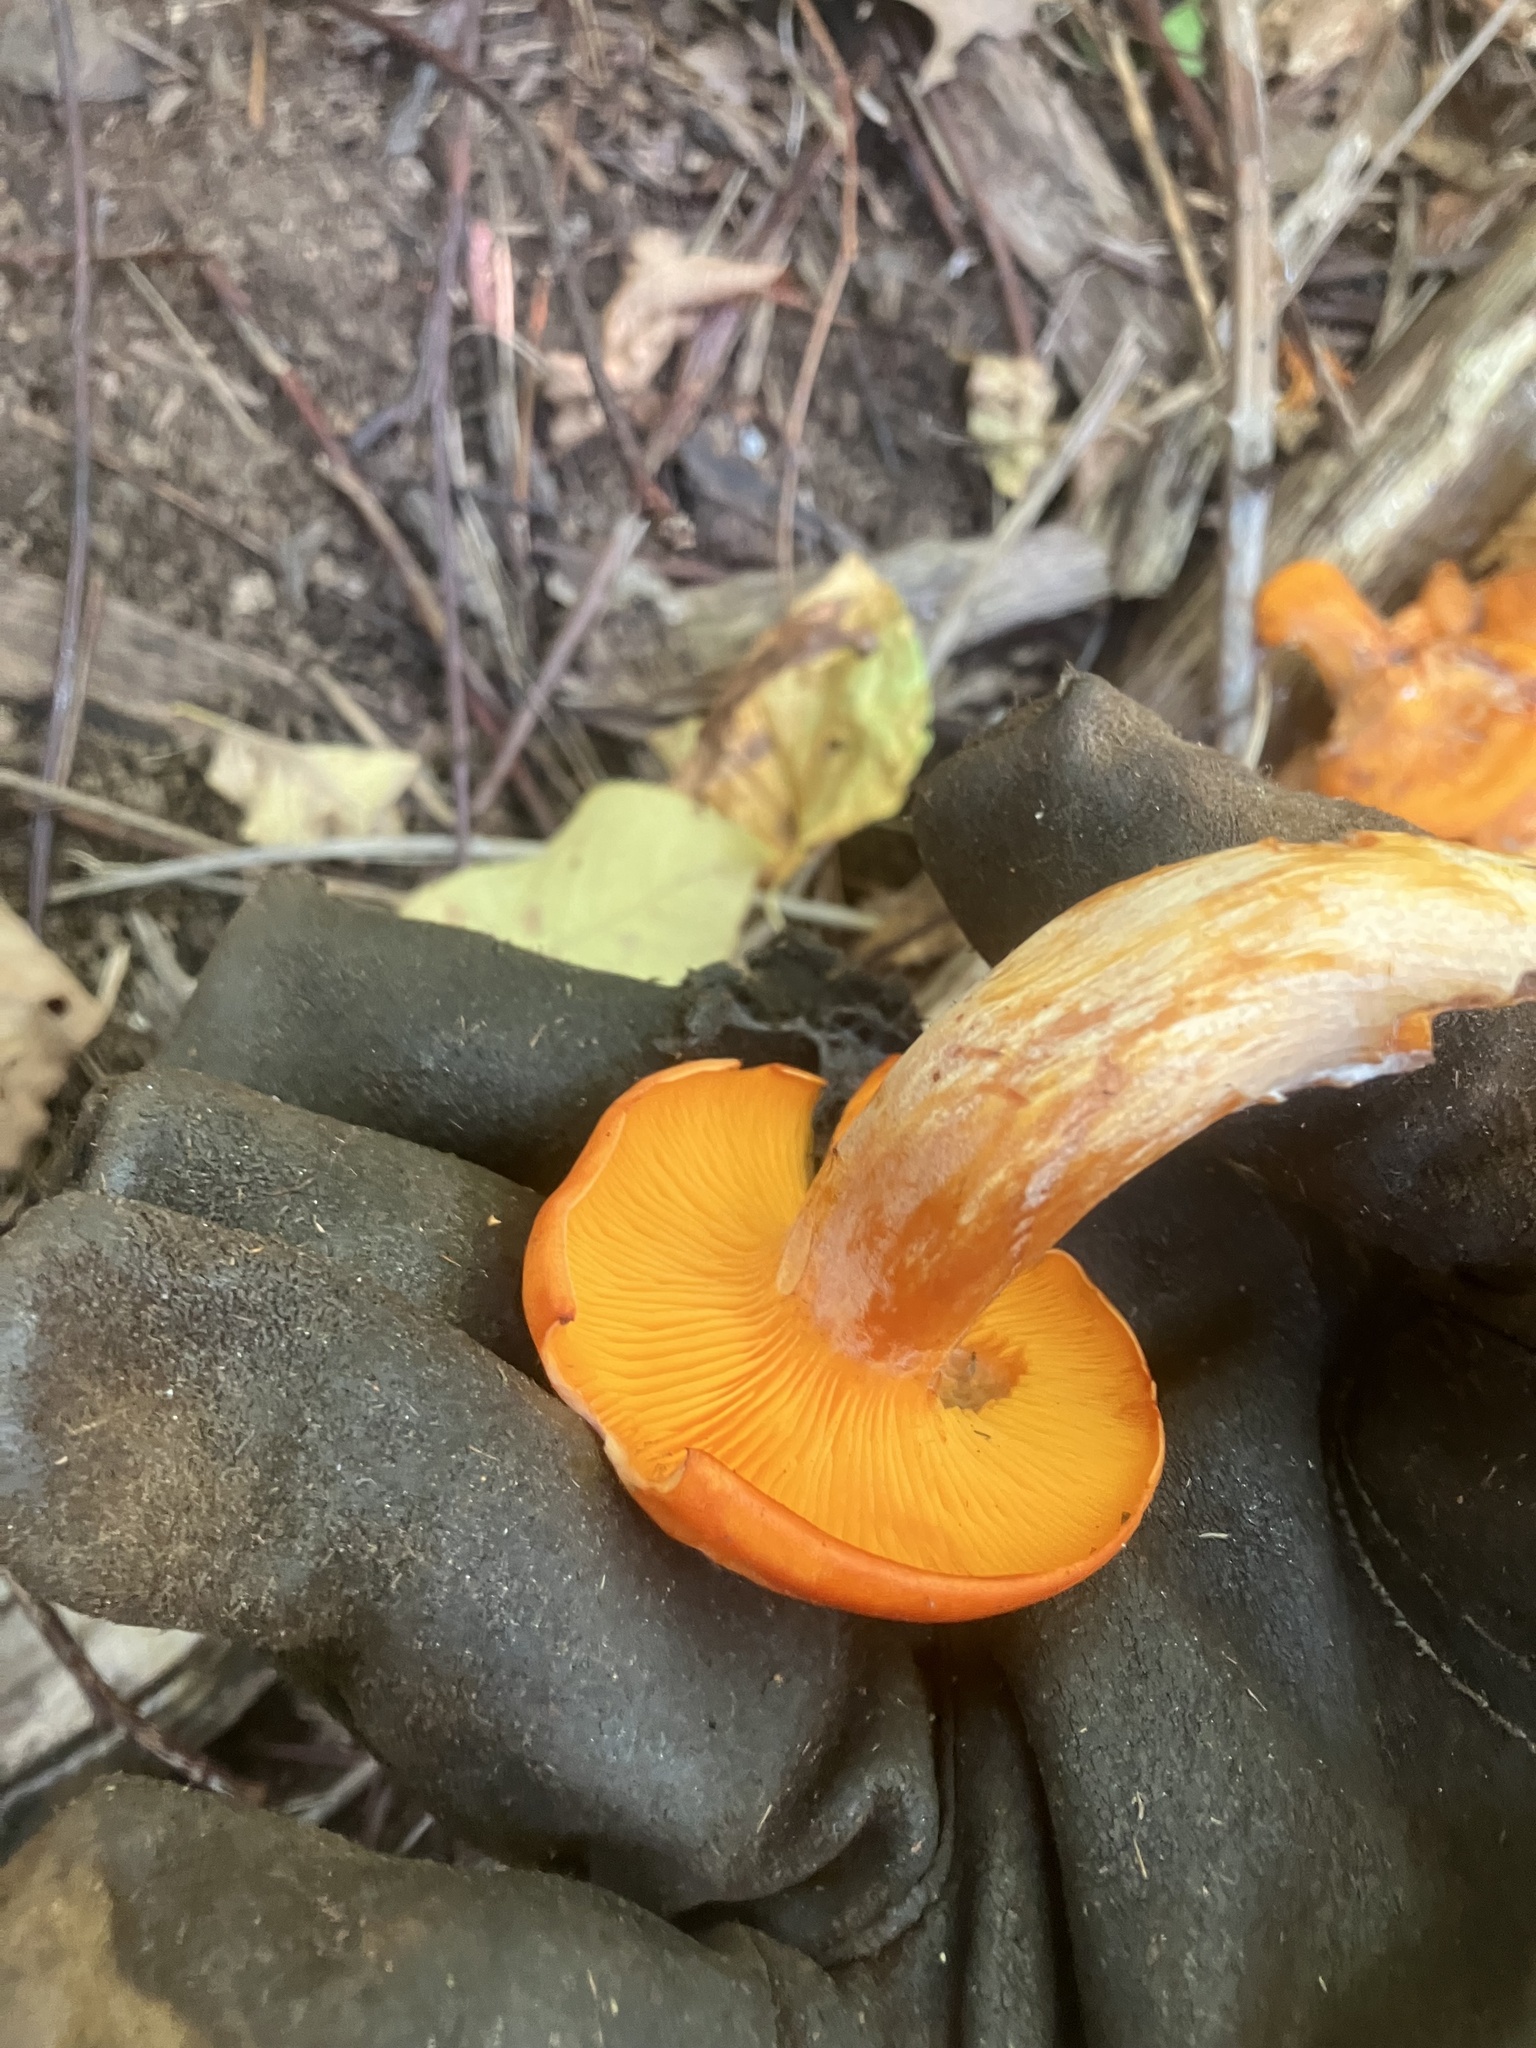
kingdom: Fungi
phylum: Basidiomycota
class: Agaricomycetes
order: Agaricales
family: Omphalotaceae
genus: Omphalotus
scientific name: Omphalotus illudens
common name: Jack o lantern
